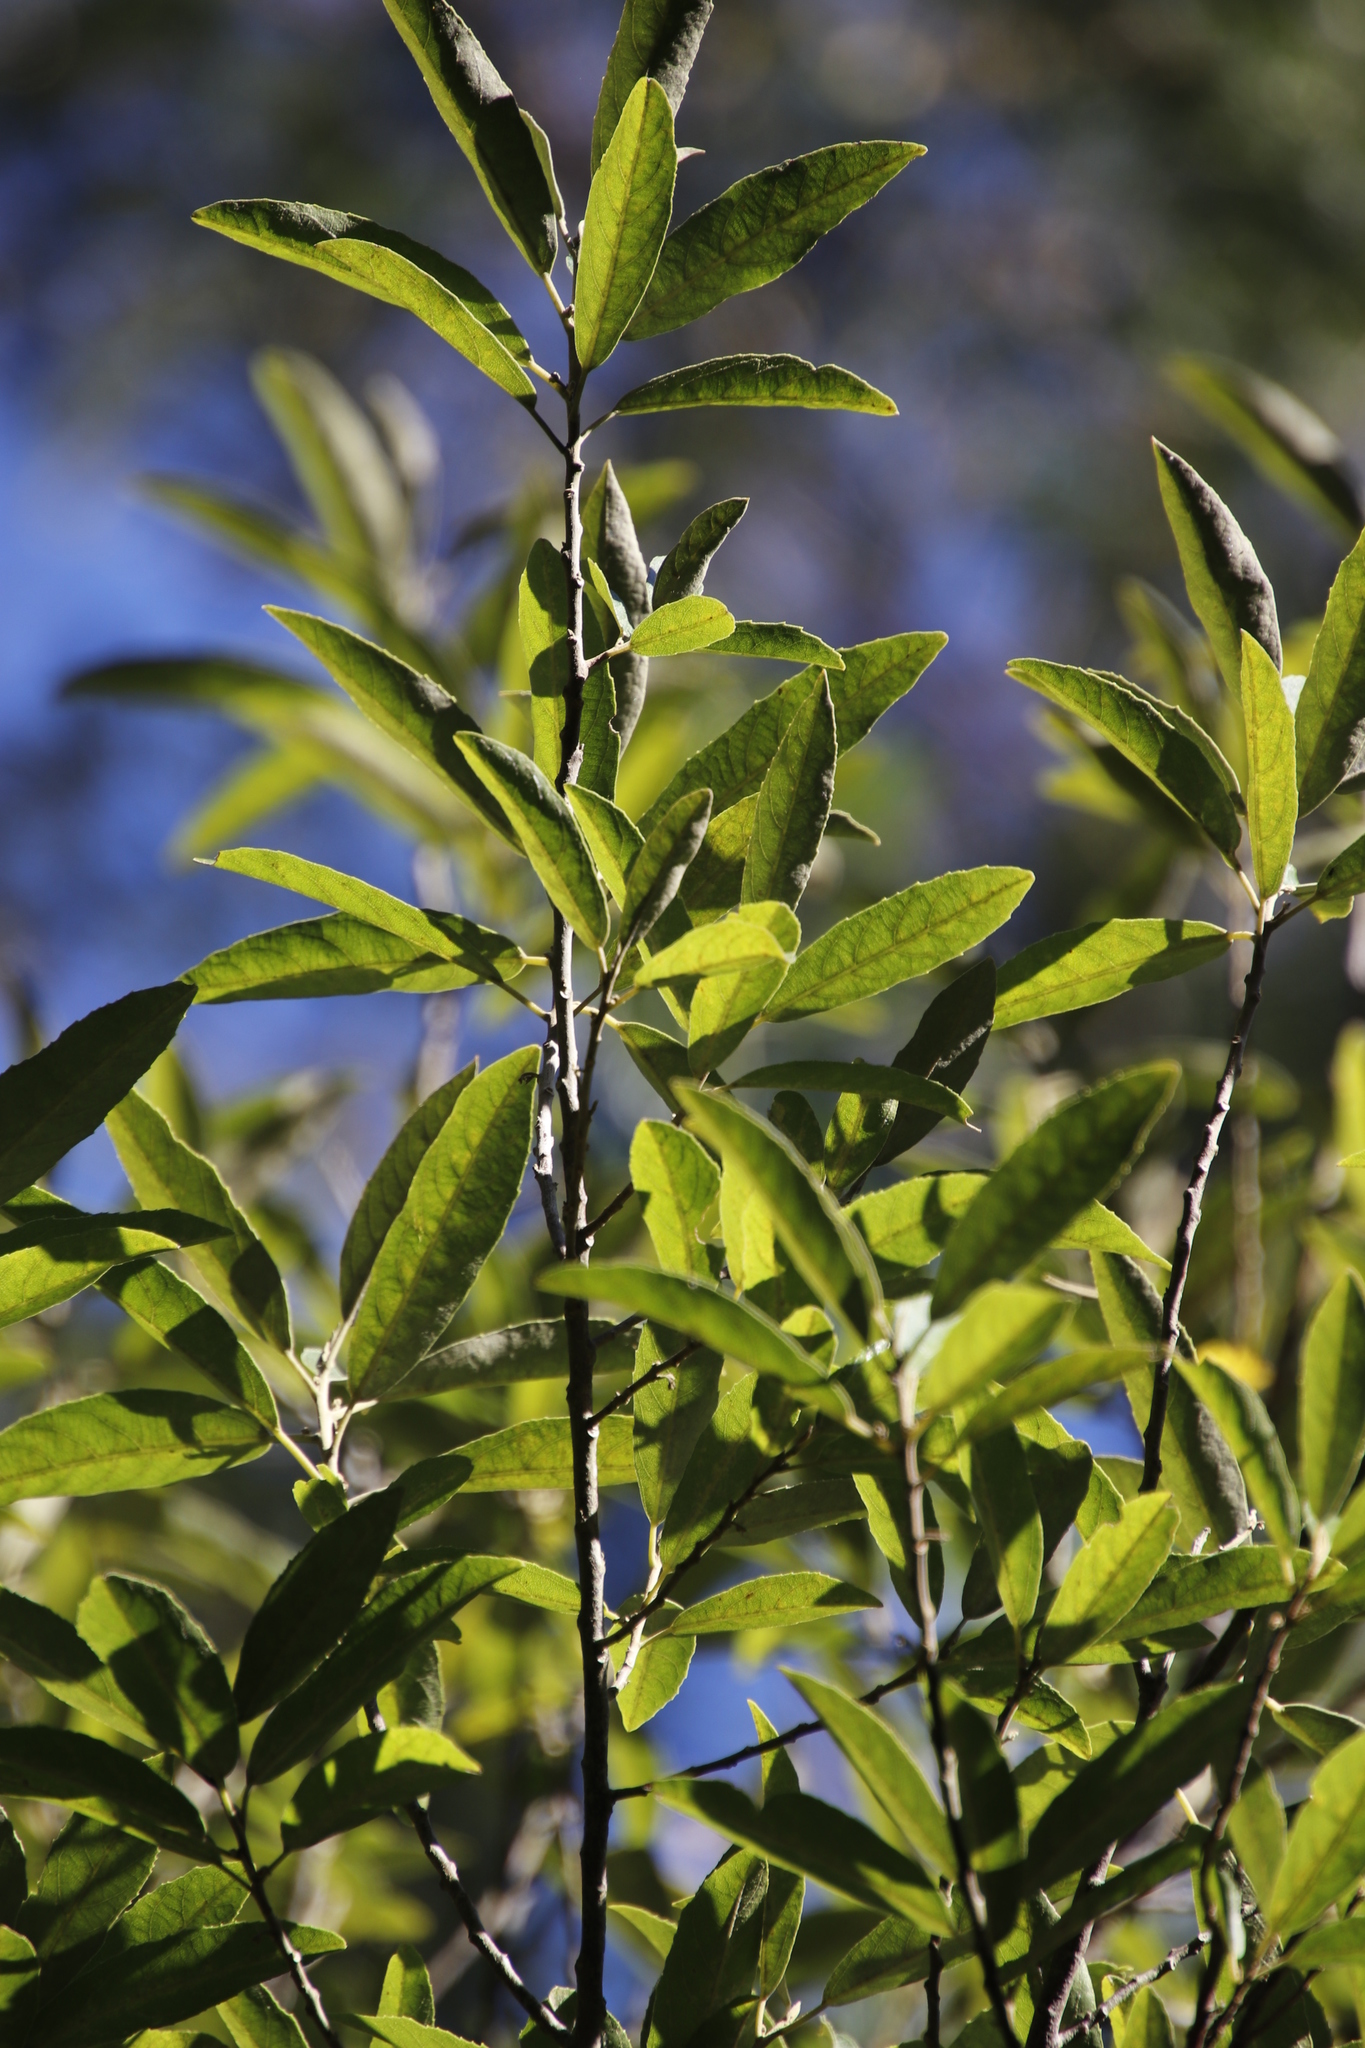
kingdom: Plantae
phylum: Tracheophyta
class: Magnoliopsida
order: Malpighiales
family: Achariaceae
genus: Kiggelaria
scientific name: Kiggelaria africana
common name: Wild peach
